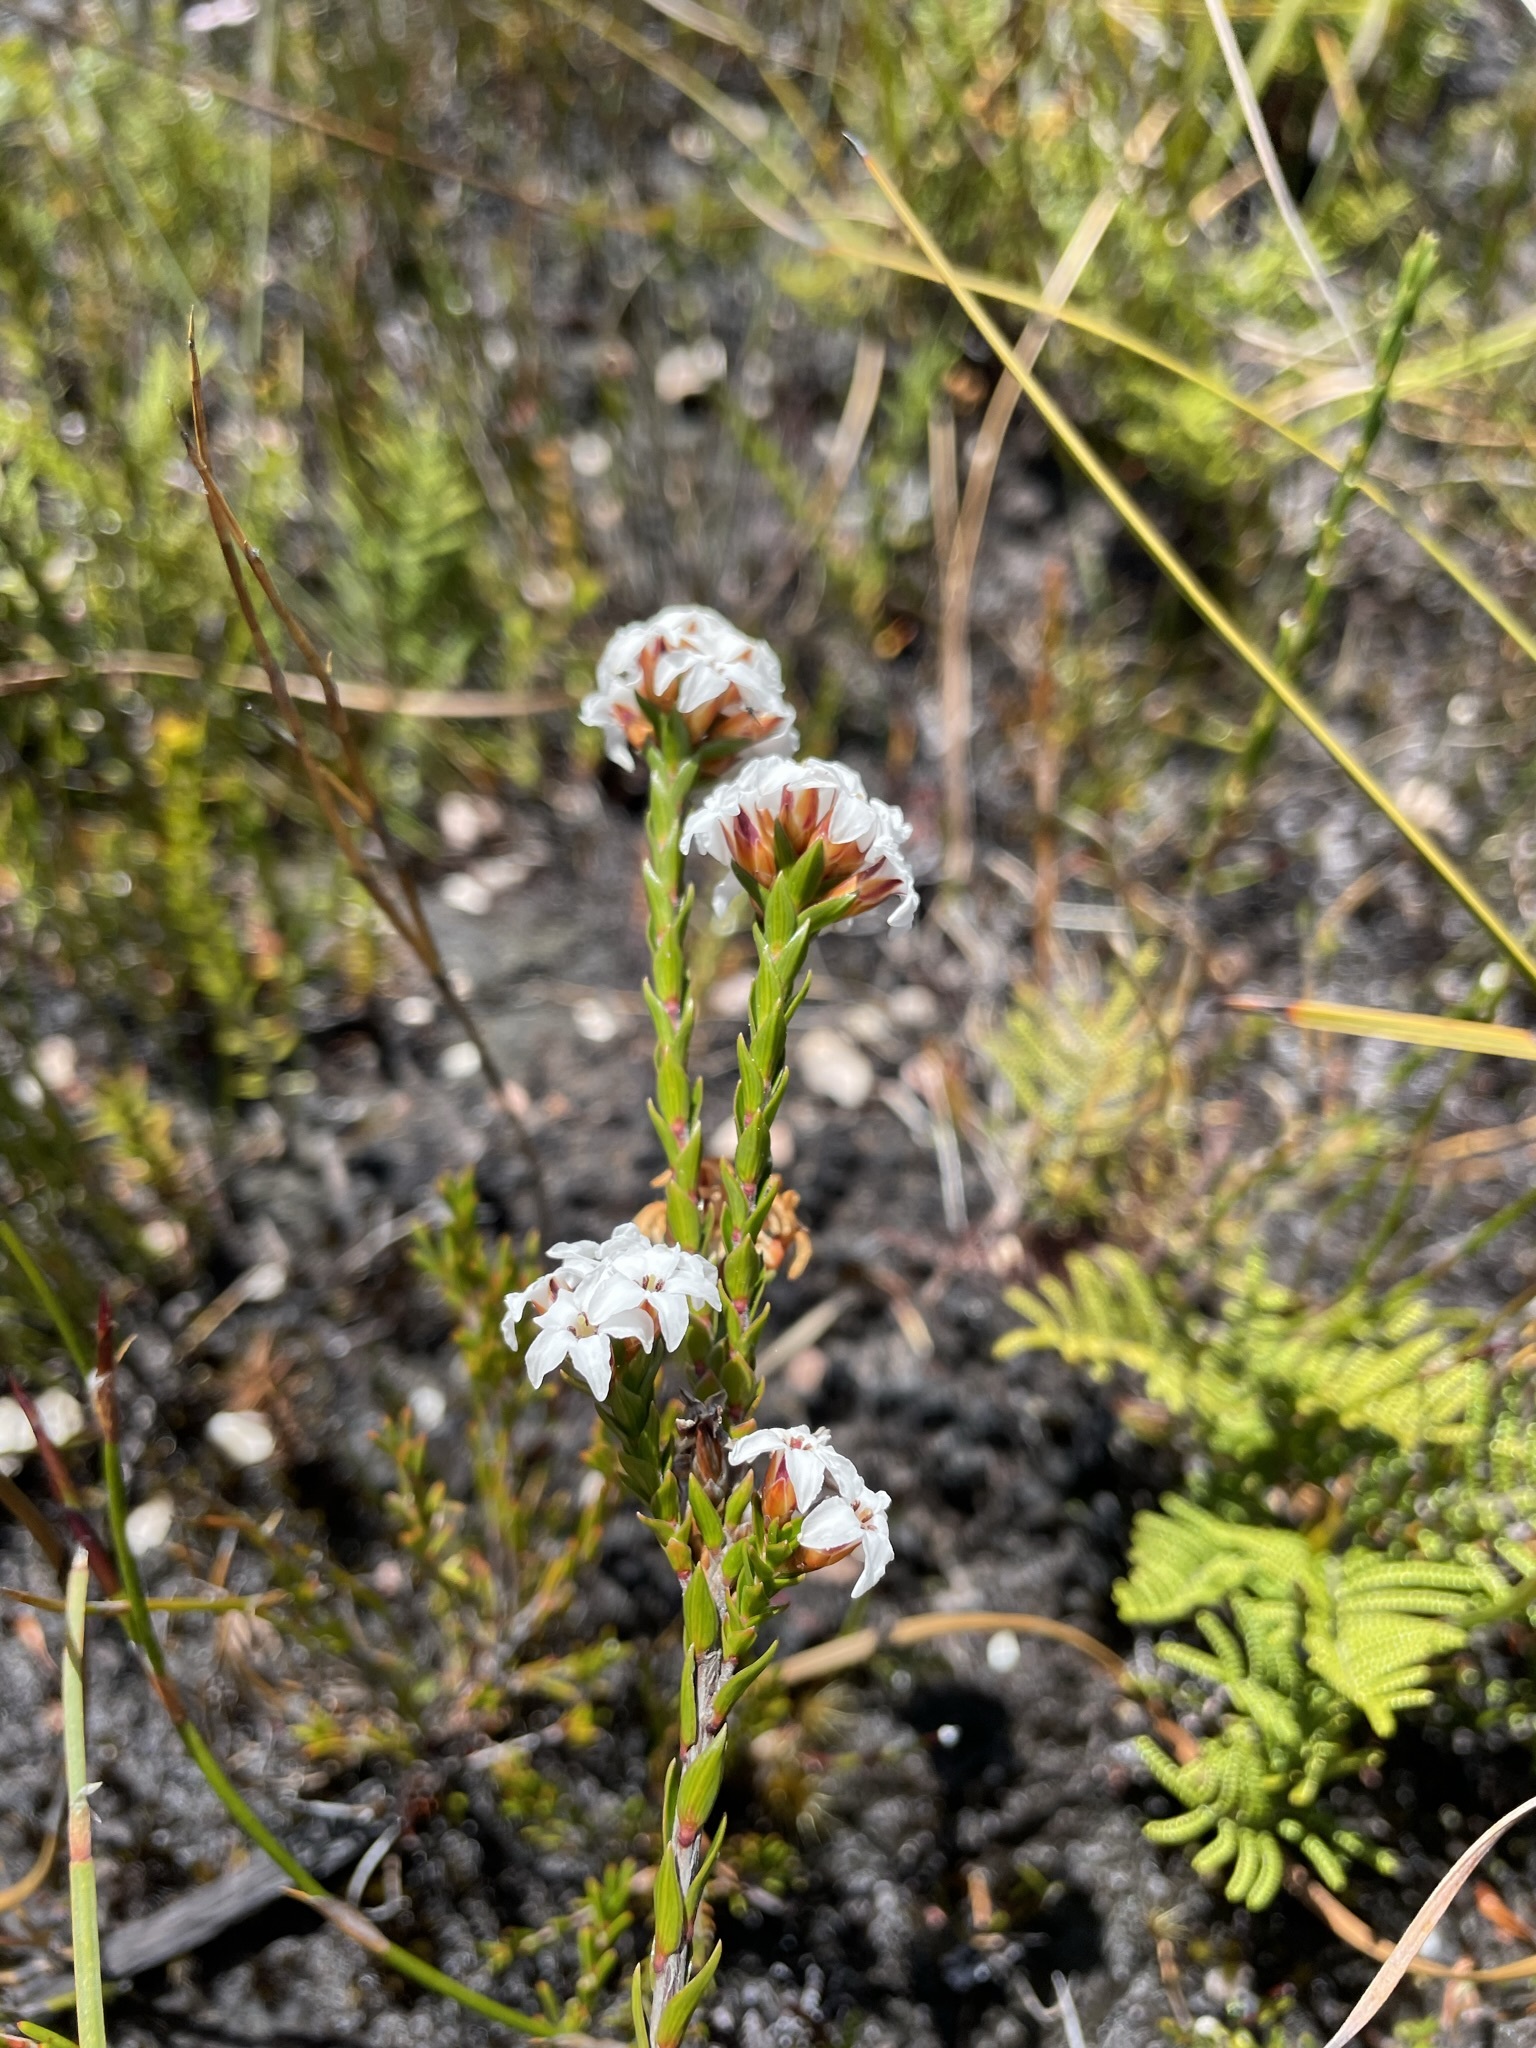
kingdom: Plantae
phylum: Tracheophyta
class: Magnoliopsida
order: Ericales
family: Ericaceae
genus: Epacris
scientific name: Epacris obtusifolia
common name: Blunt-leaf australian-heath
